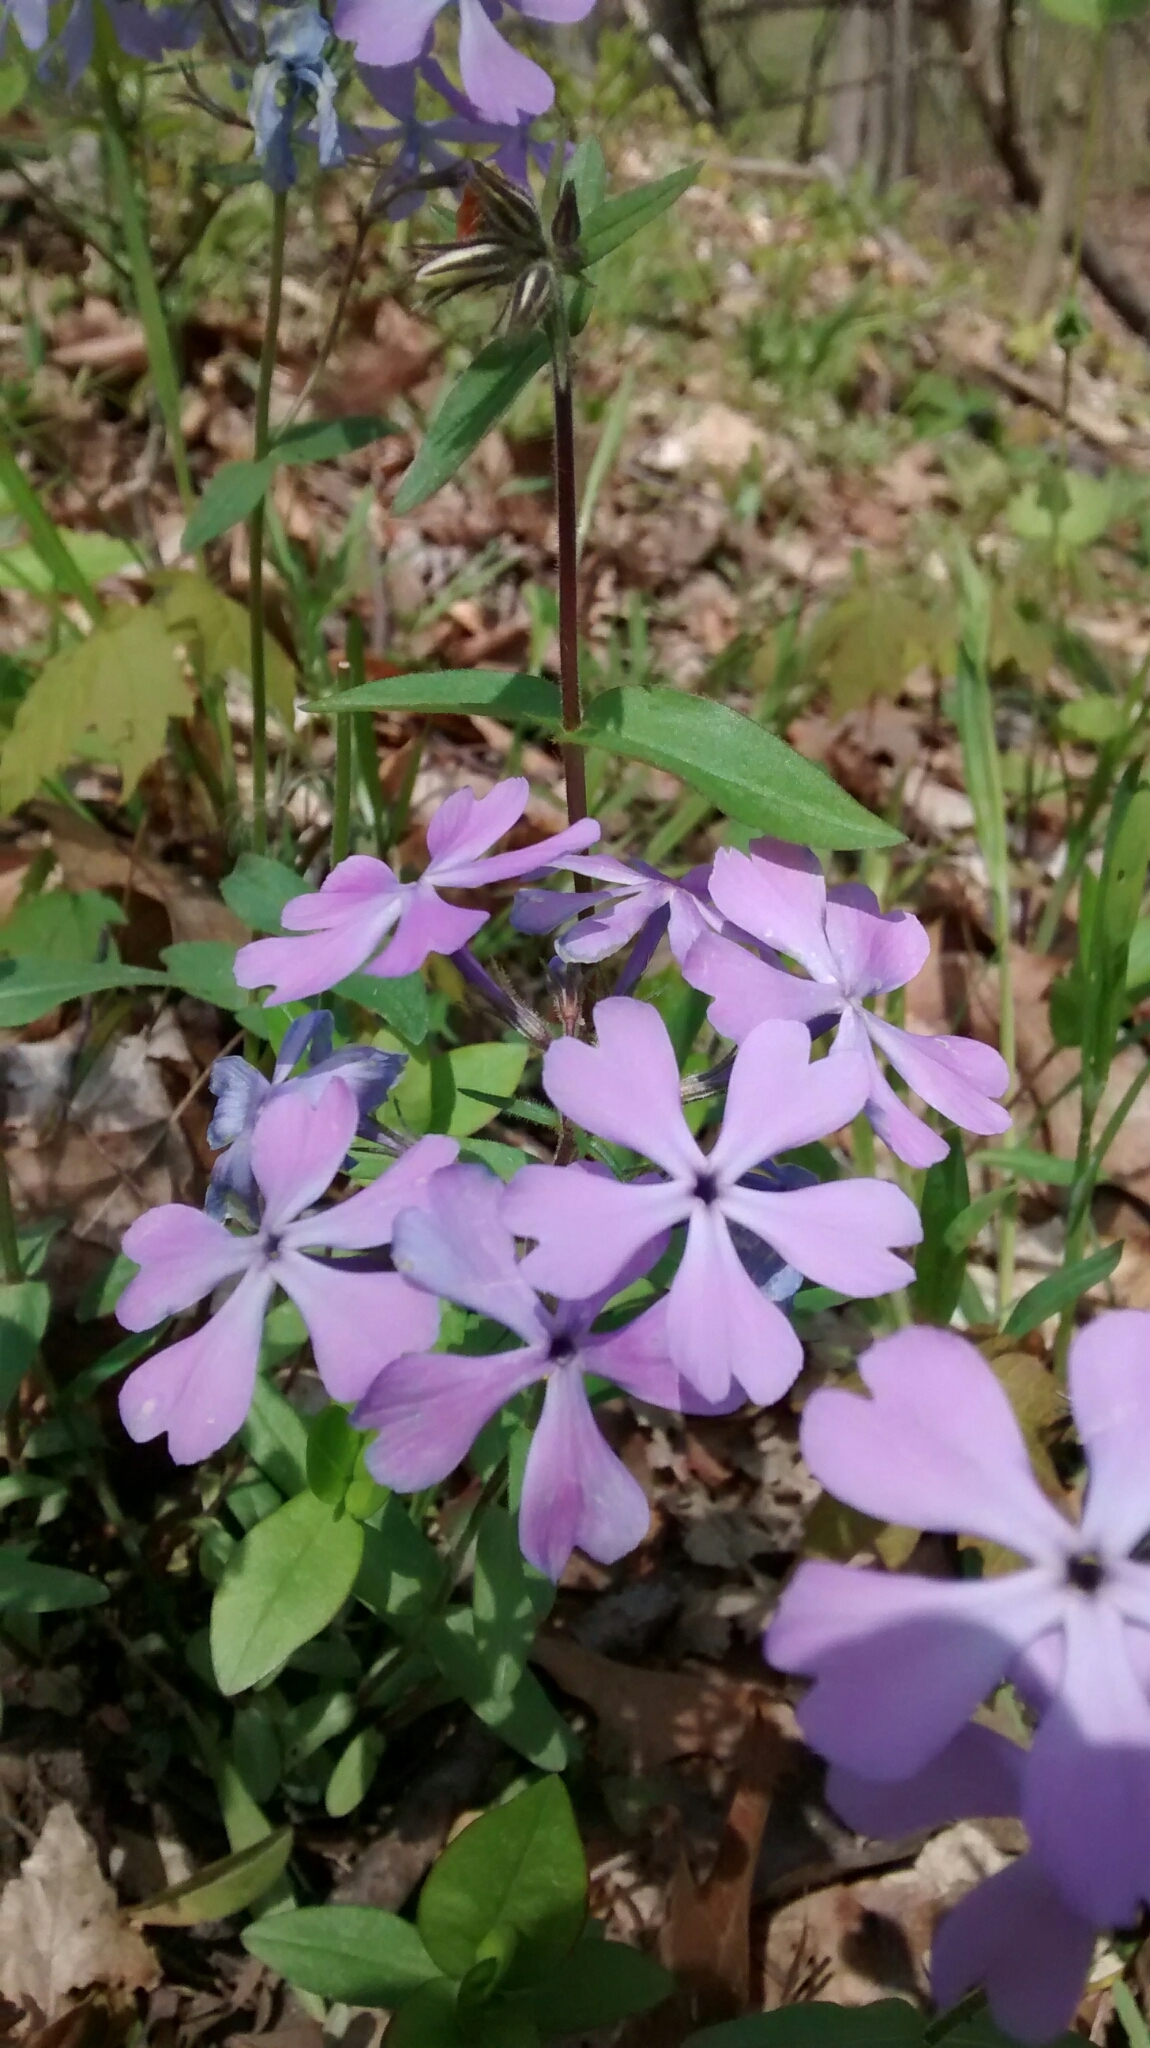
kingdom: Plantae
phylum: Tracheophyta
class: Magnoliopsida
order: Ericales
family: Polemoniaceae
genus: Phlox
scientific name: Phlox divaricata
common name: Blue phlox
